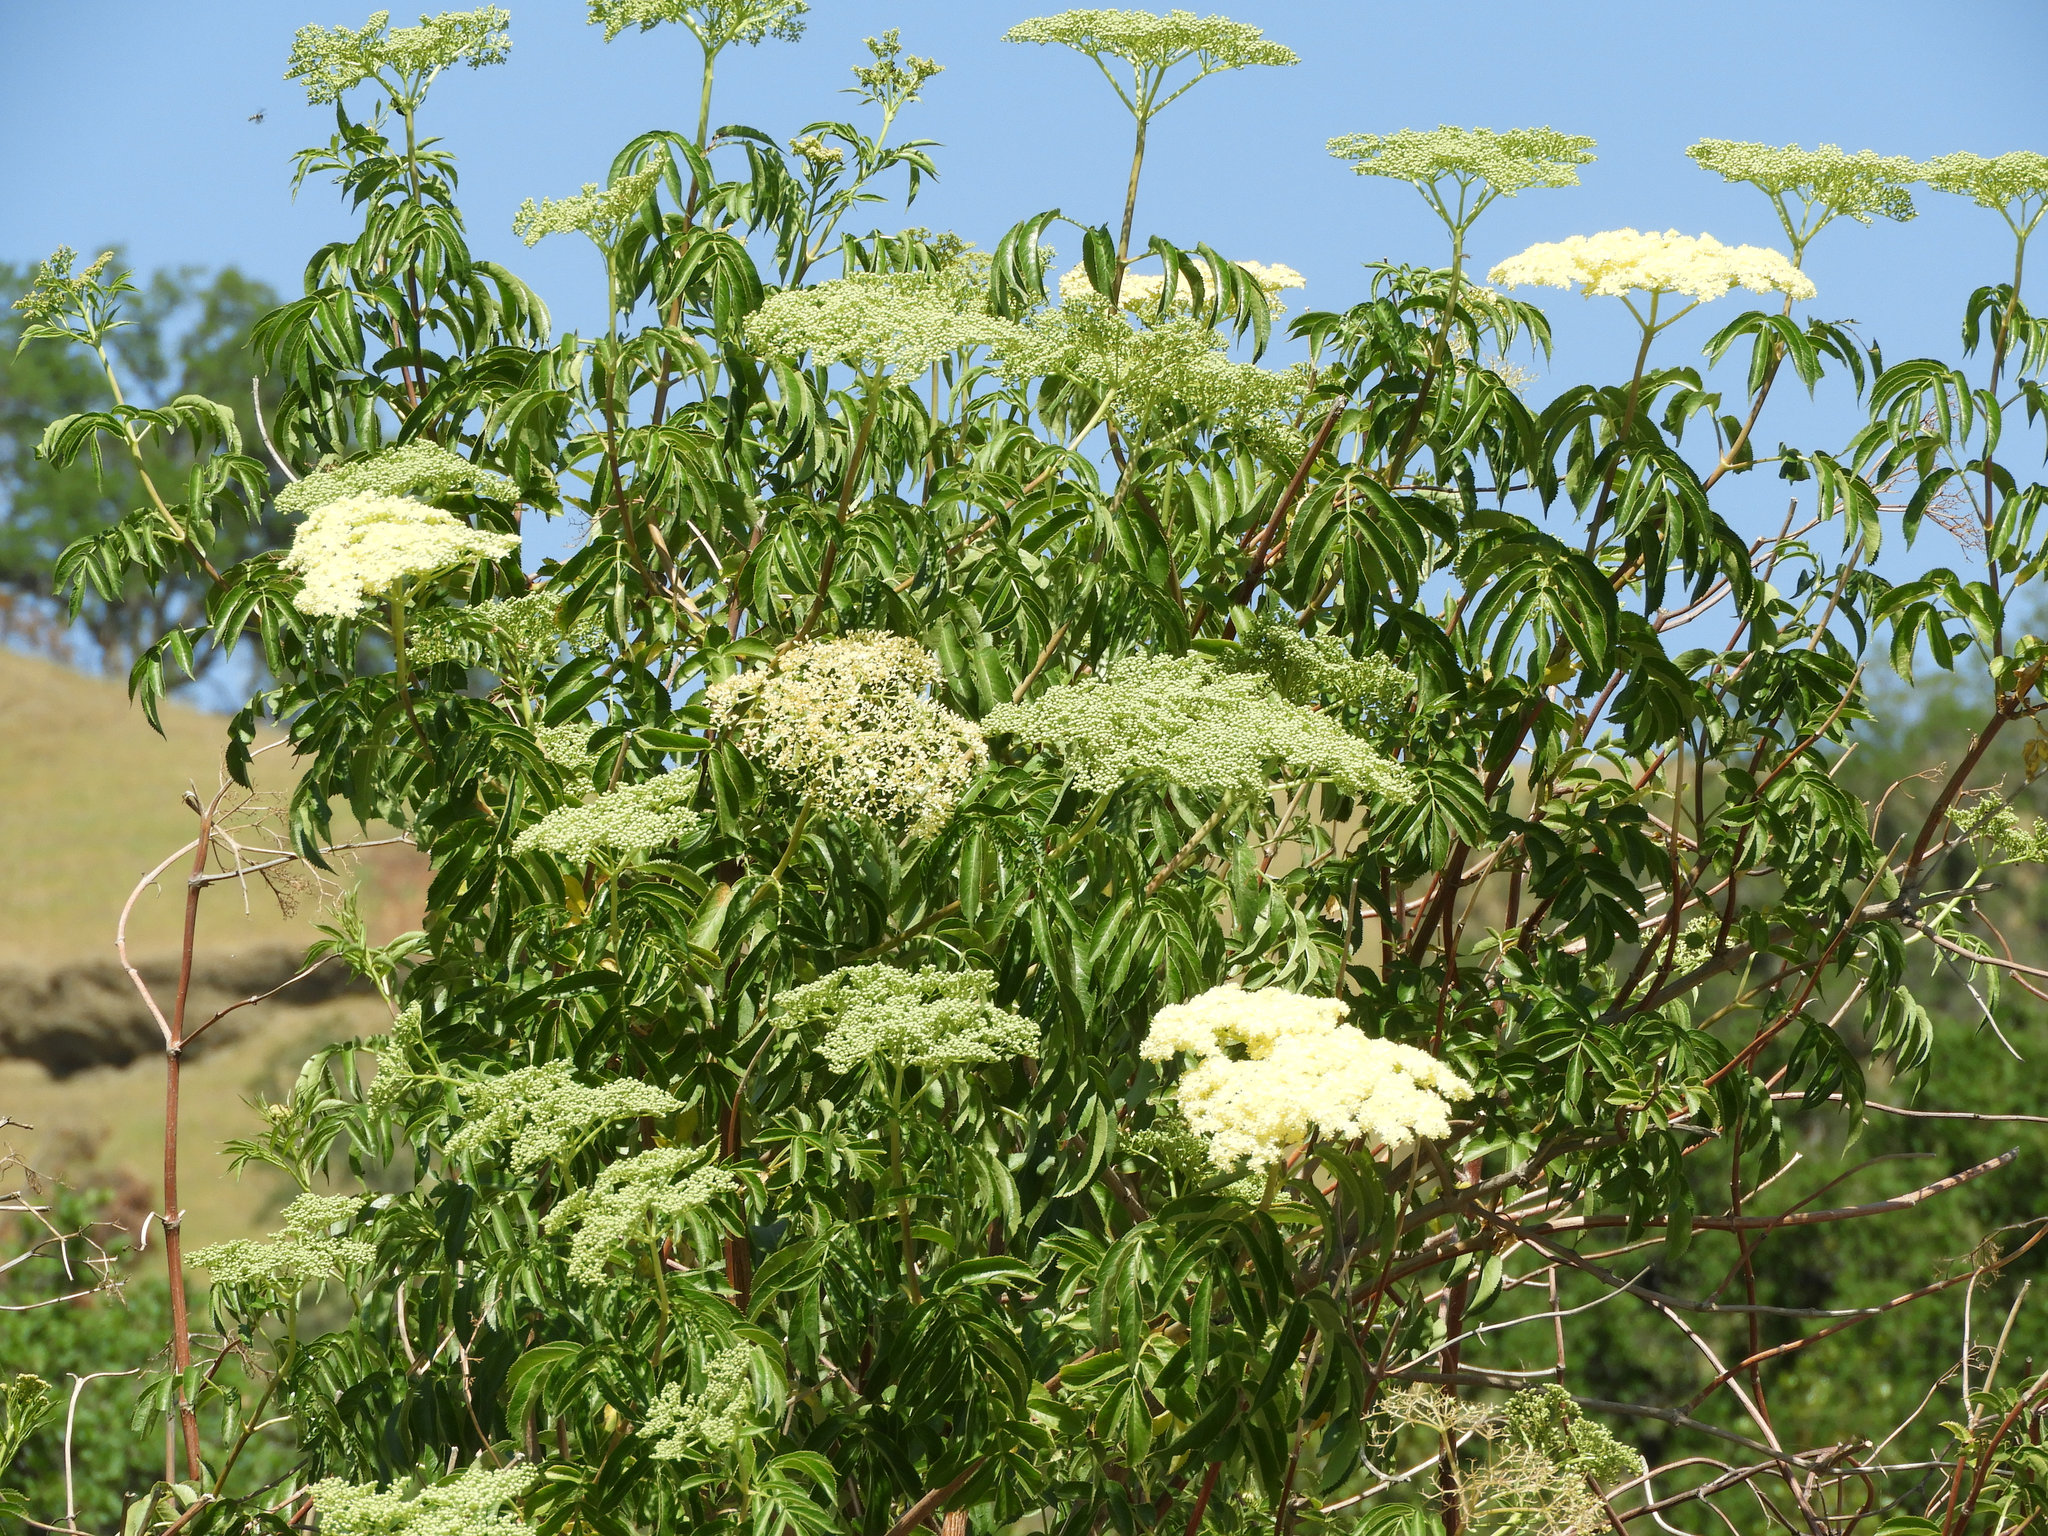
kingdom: Plantae
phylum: Tracheophyta
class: Magnoliopsida
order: Dipsacales
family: Viburnaceae
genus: Sambucus
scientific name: Sambucus cerulea
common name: Blue elder
